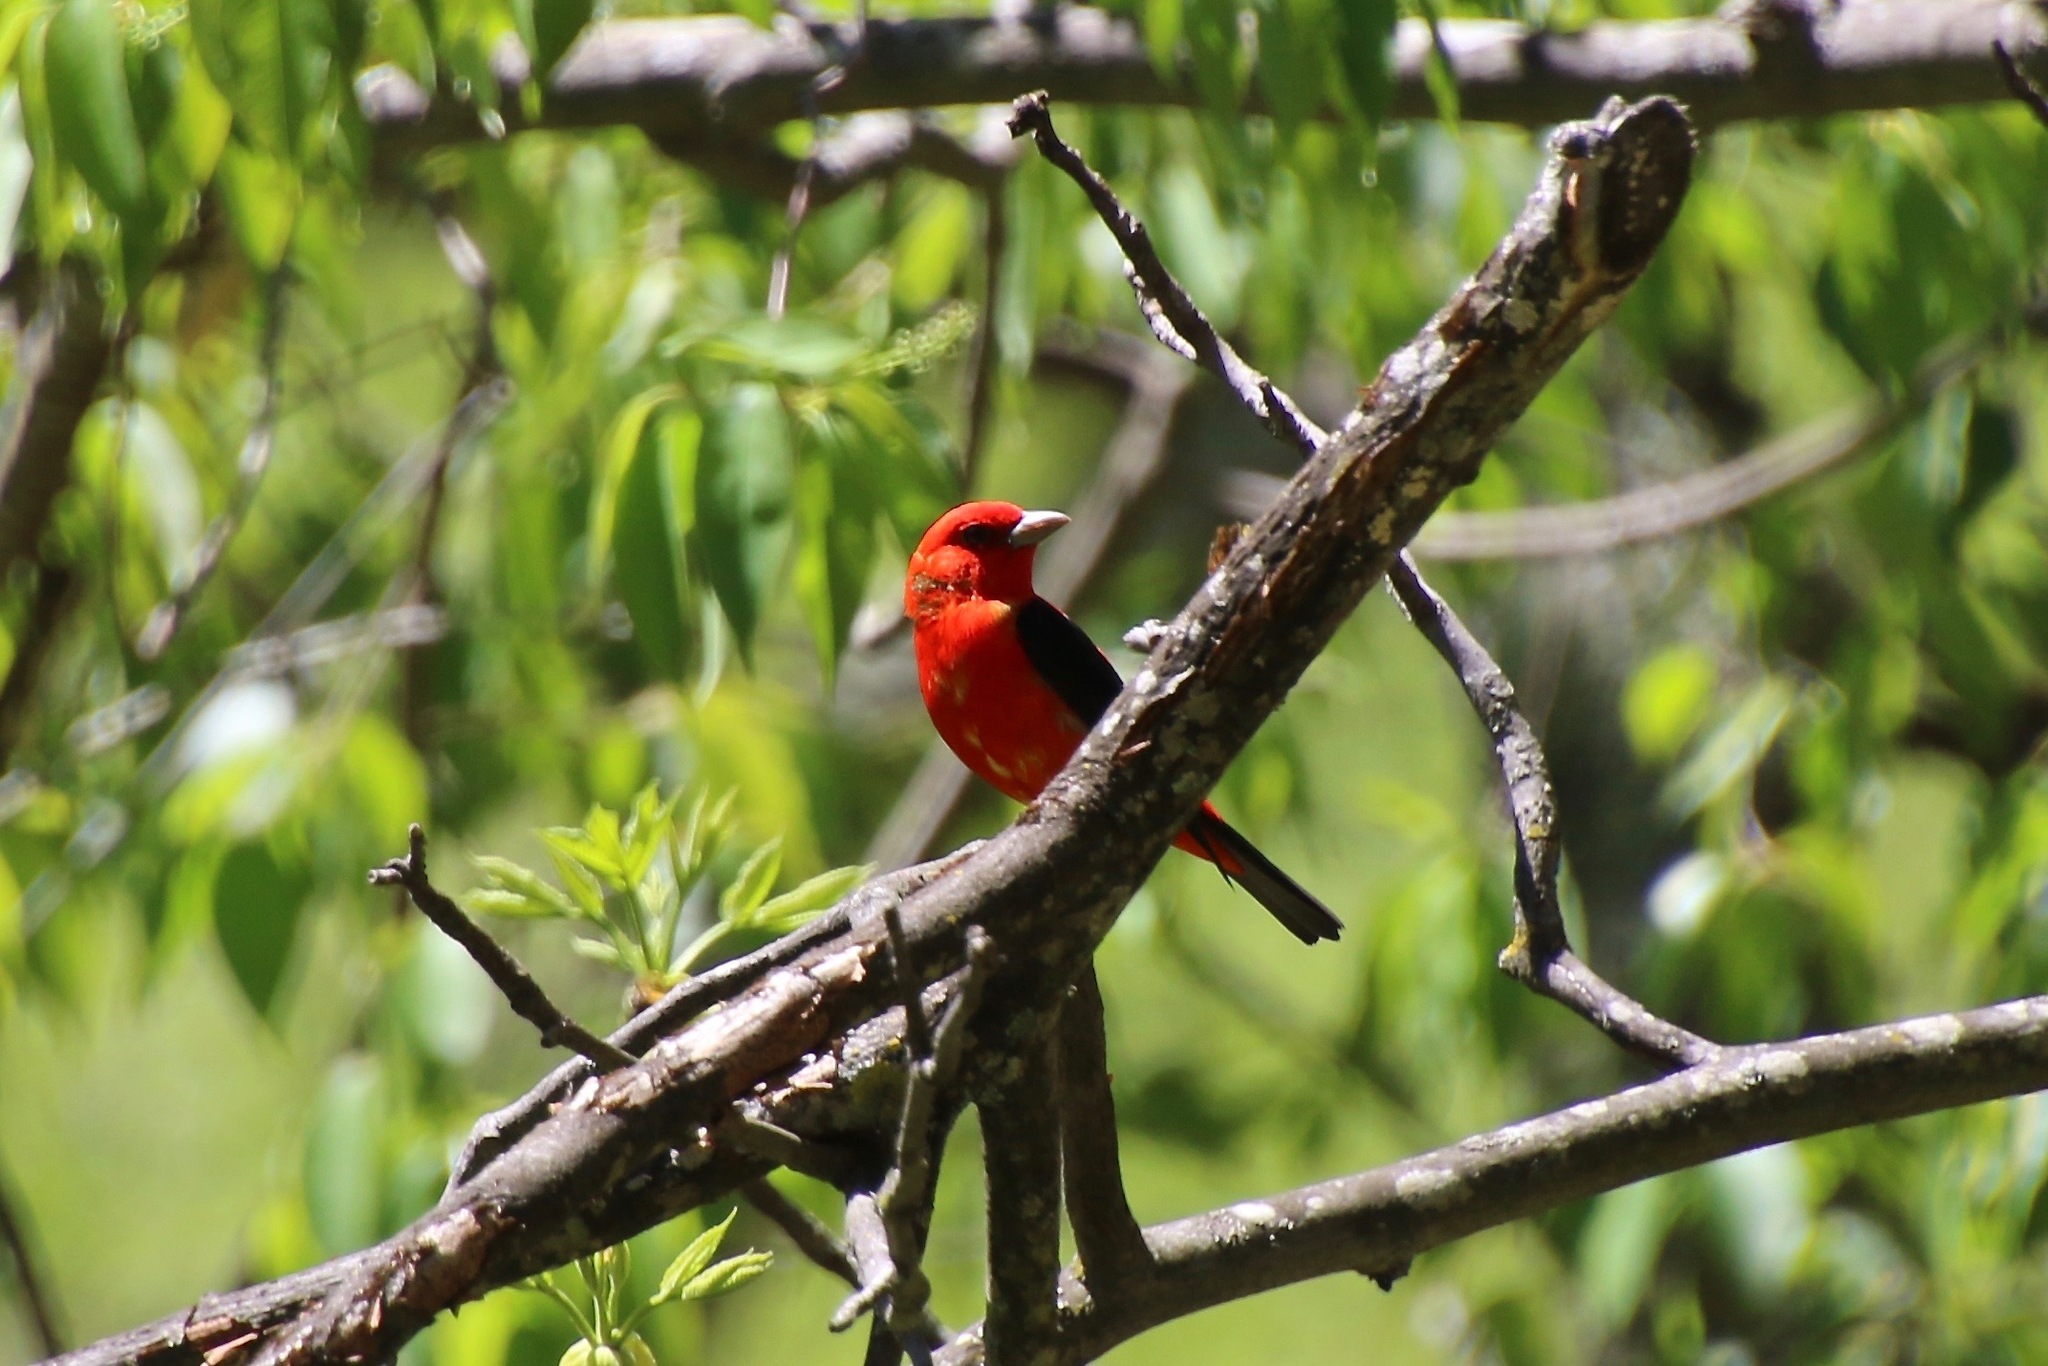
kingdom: Animalia
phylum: Chordata
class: Aves
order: Passeriformes
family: Cardinalidae
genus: Piranga
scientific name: Piranga olivacea
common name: Scarlet tanager
